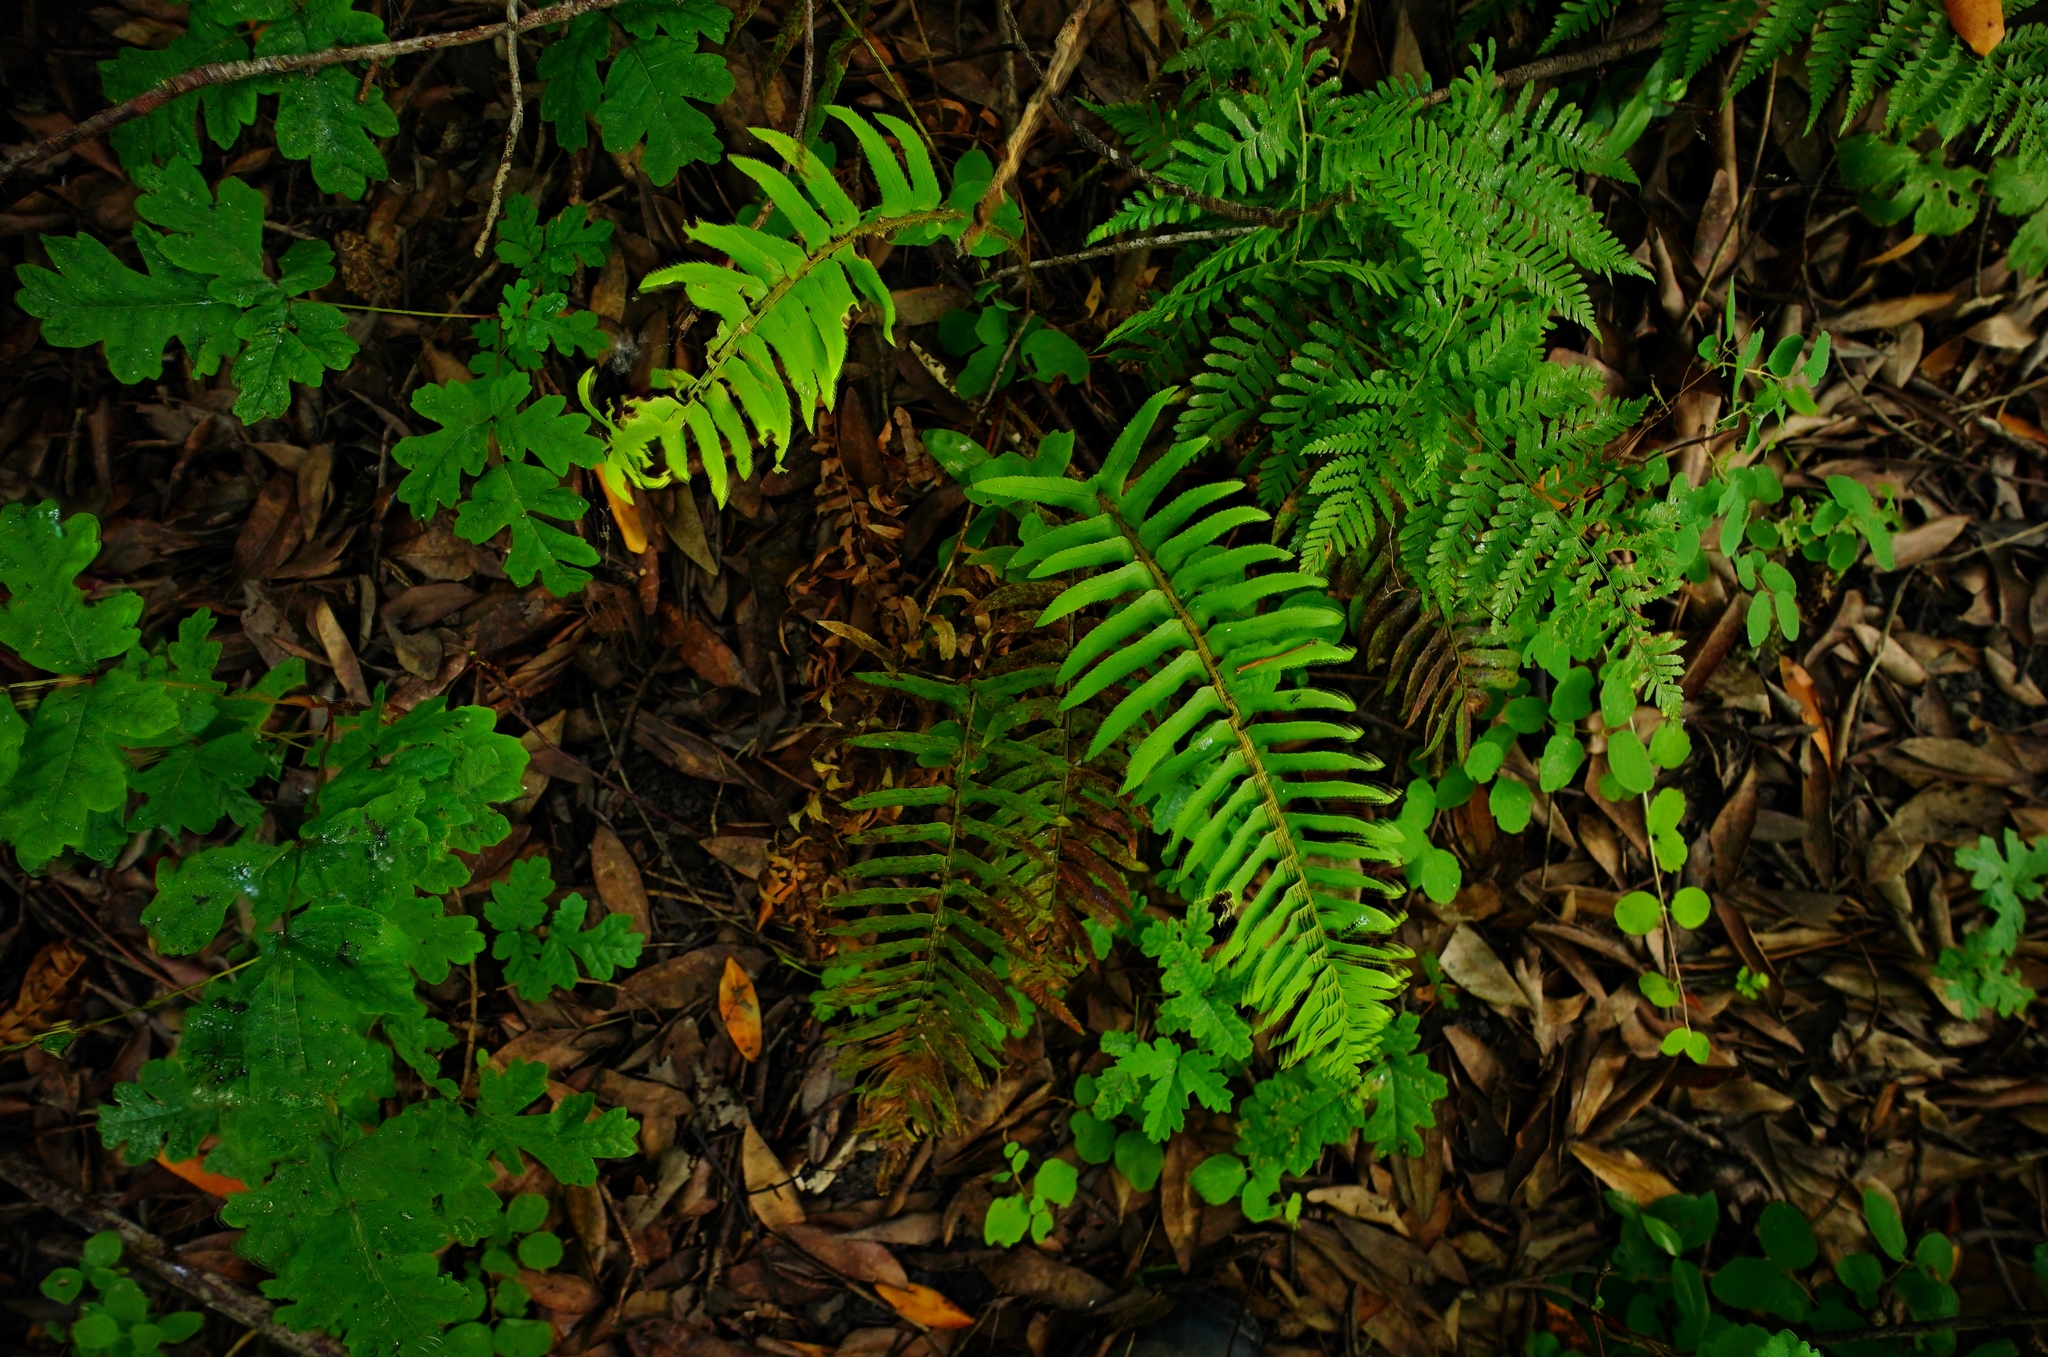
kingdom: Plantae
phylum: Tracheophyta
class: Polypodiopsida
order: Polypodiales
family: Dryopteridaceae
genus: Polystichum
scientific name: Polystichum munitum
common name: Western sword-fern
